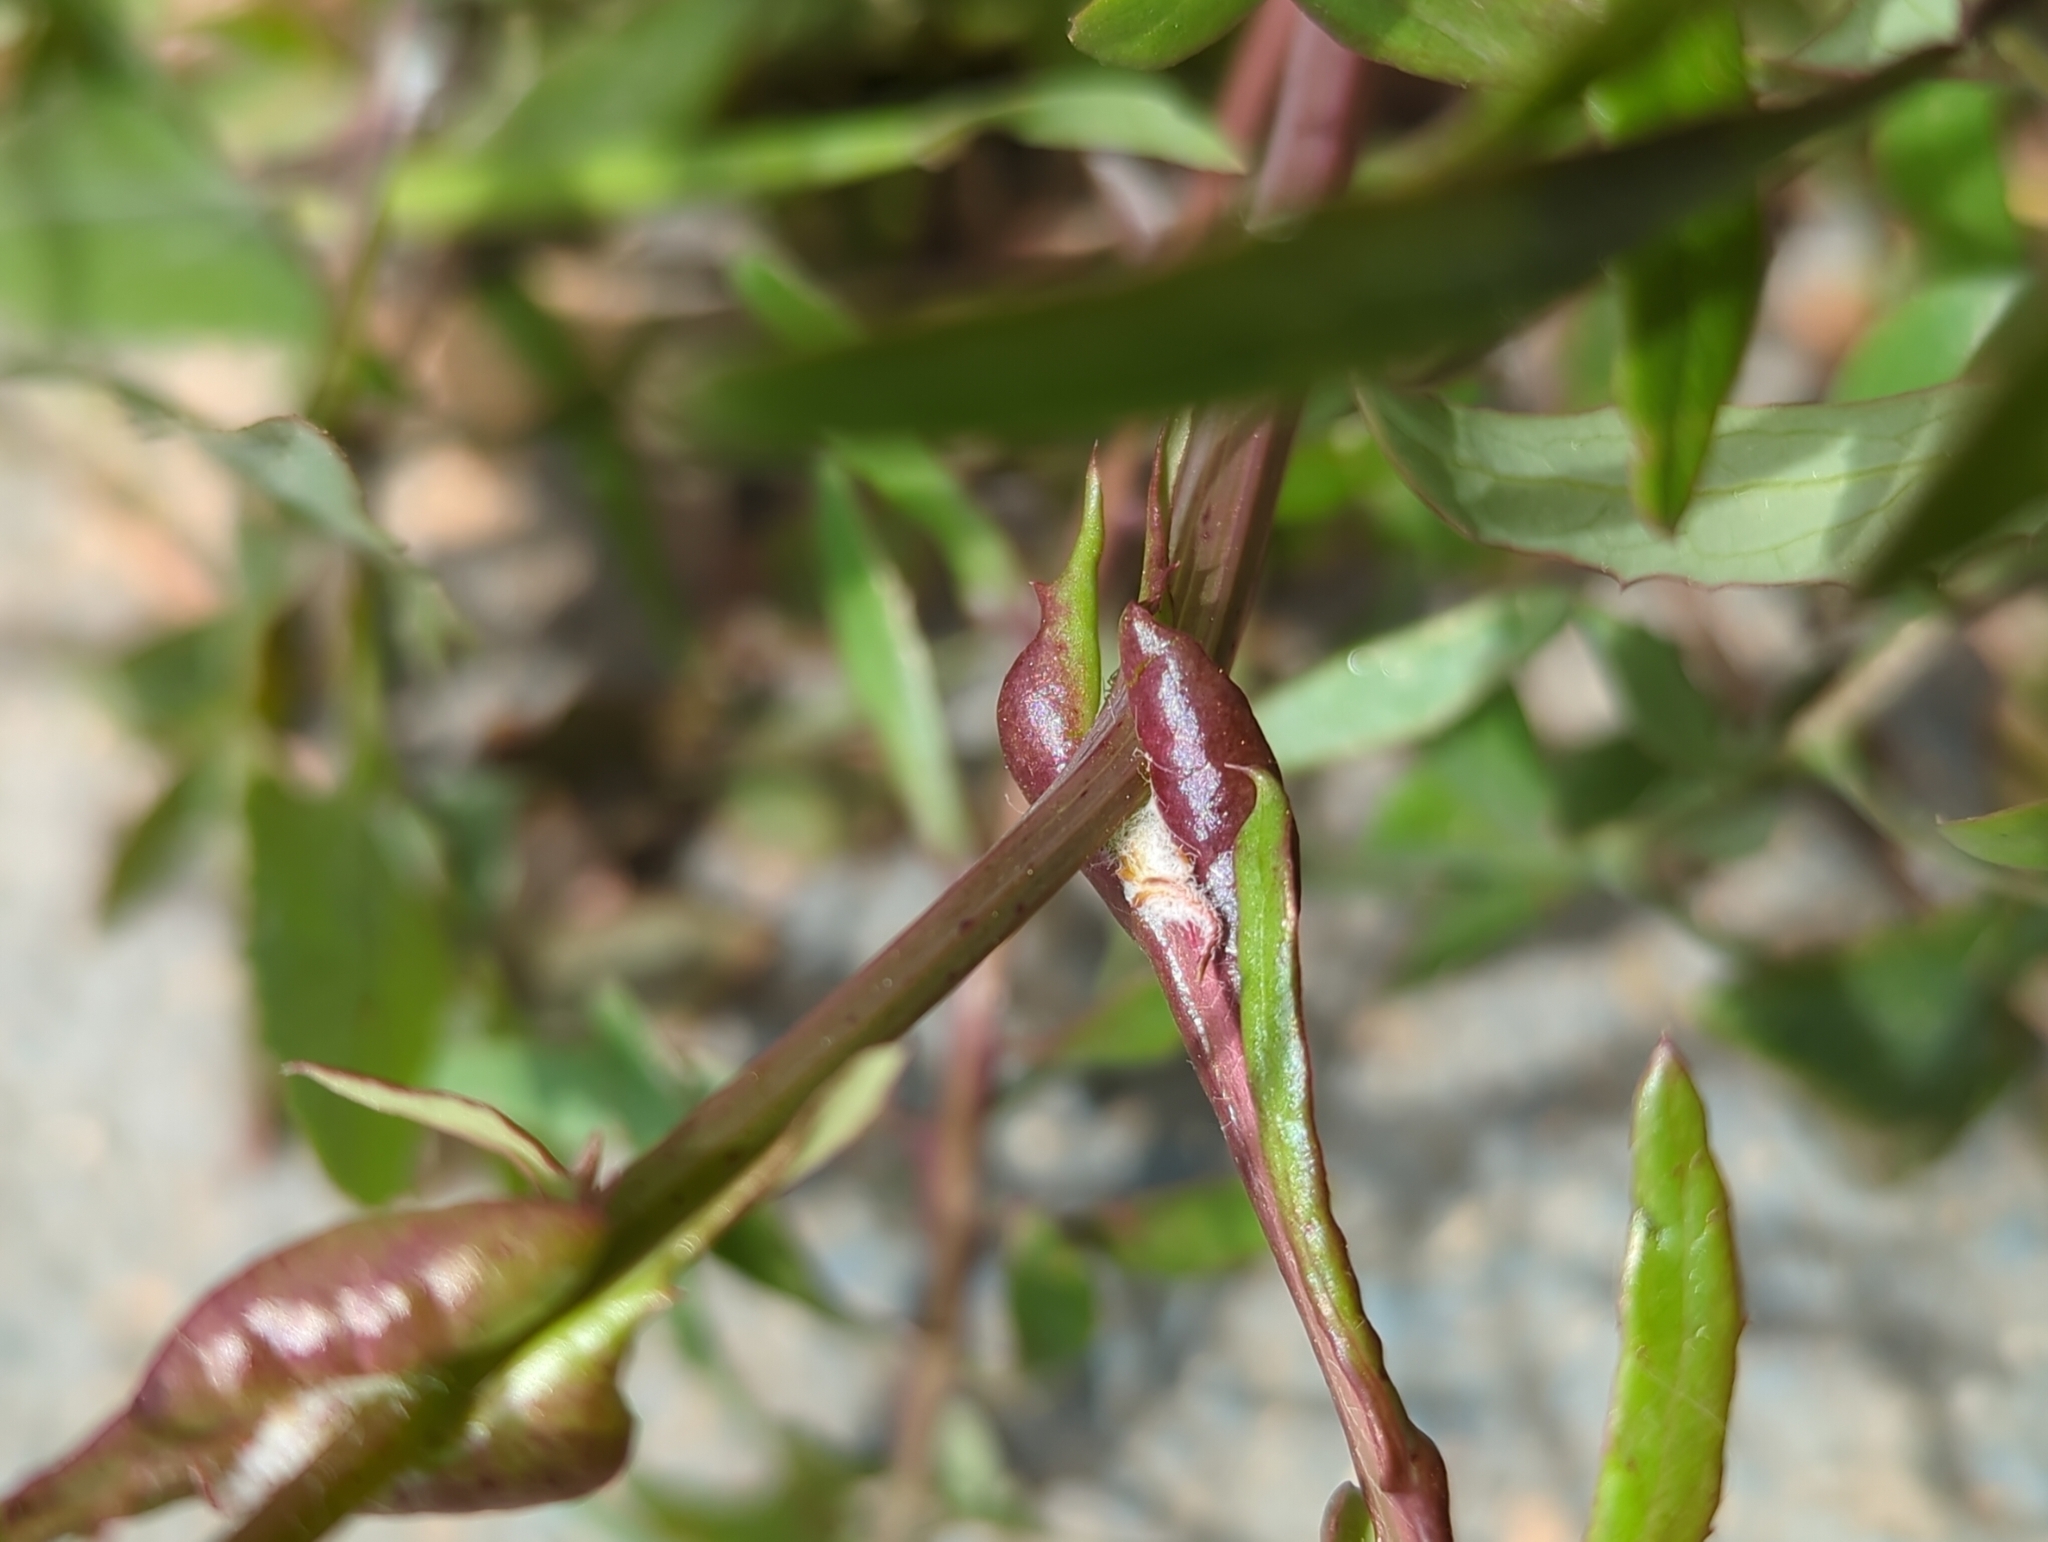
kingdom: Plantae
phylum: Tracheophyta
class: Magnoliopsida
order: Asterales
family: Asteraceae
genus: Sonchus
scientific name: Sonchus tenerrimus
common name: Clammy sowthistle
